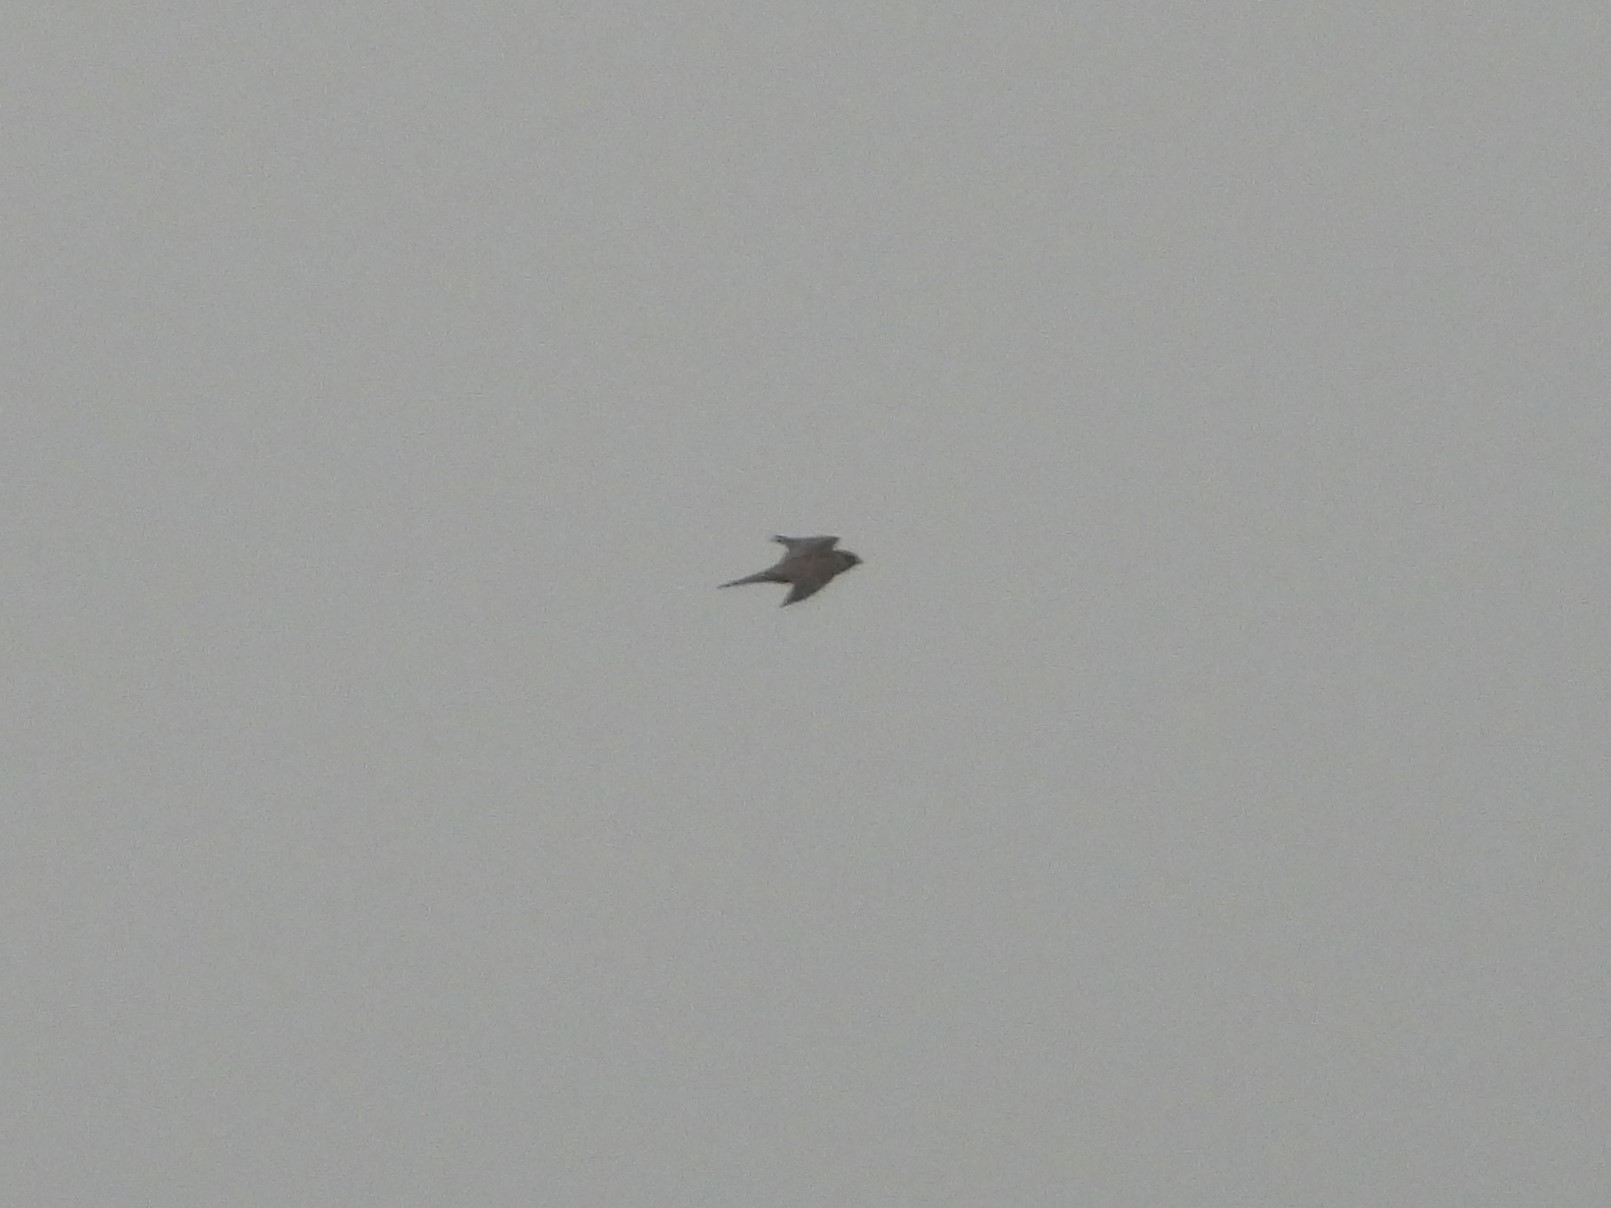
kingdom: Animalia
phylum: Chordata
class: Aves
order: Falconiformes
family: Falconidae
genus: Falco
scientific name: Falco subbuteo
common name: Eurasian hobby
